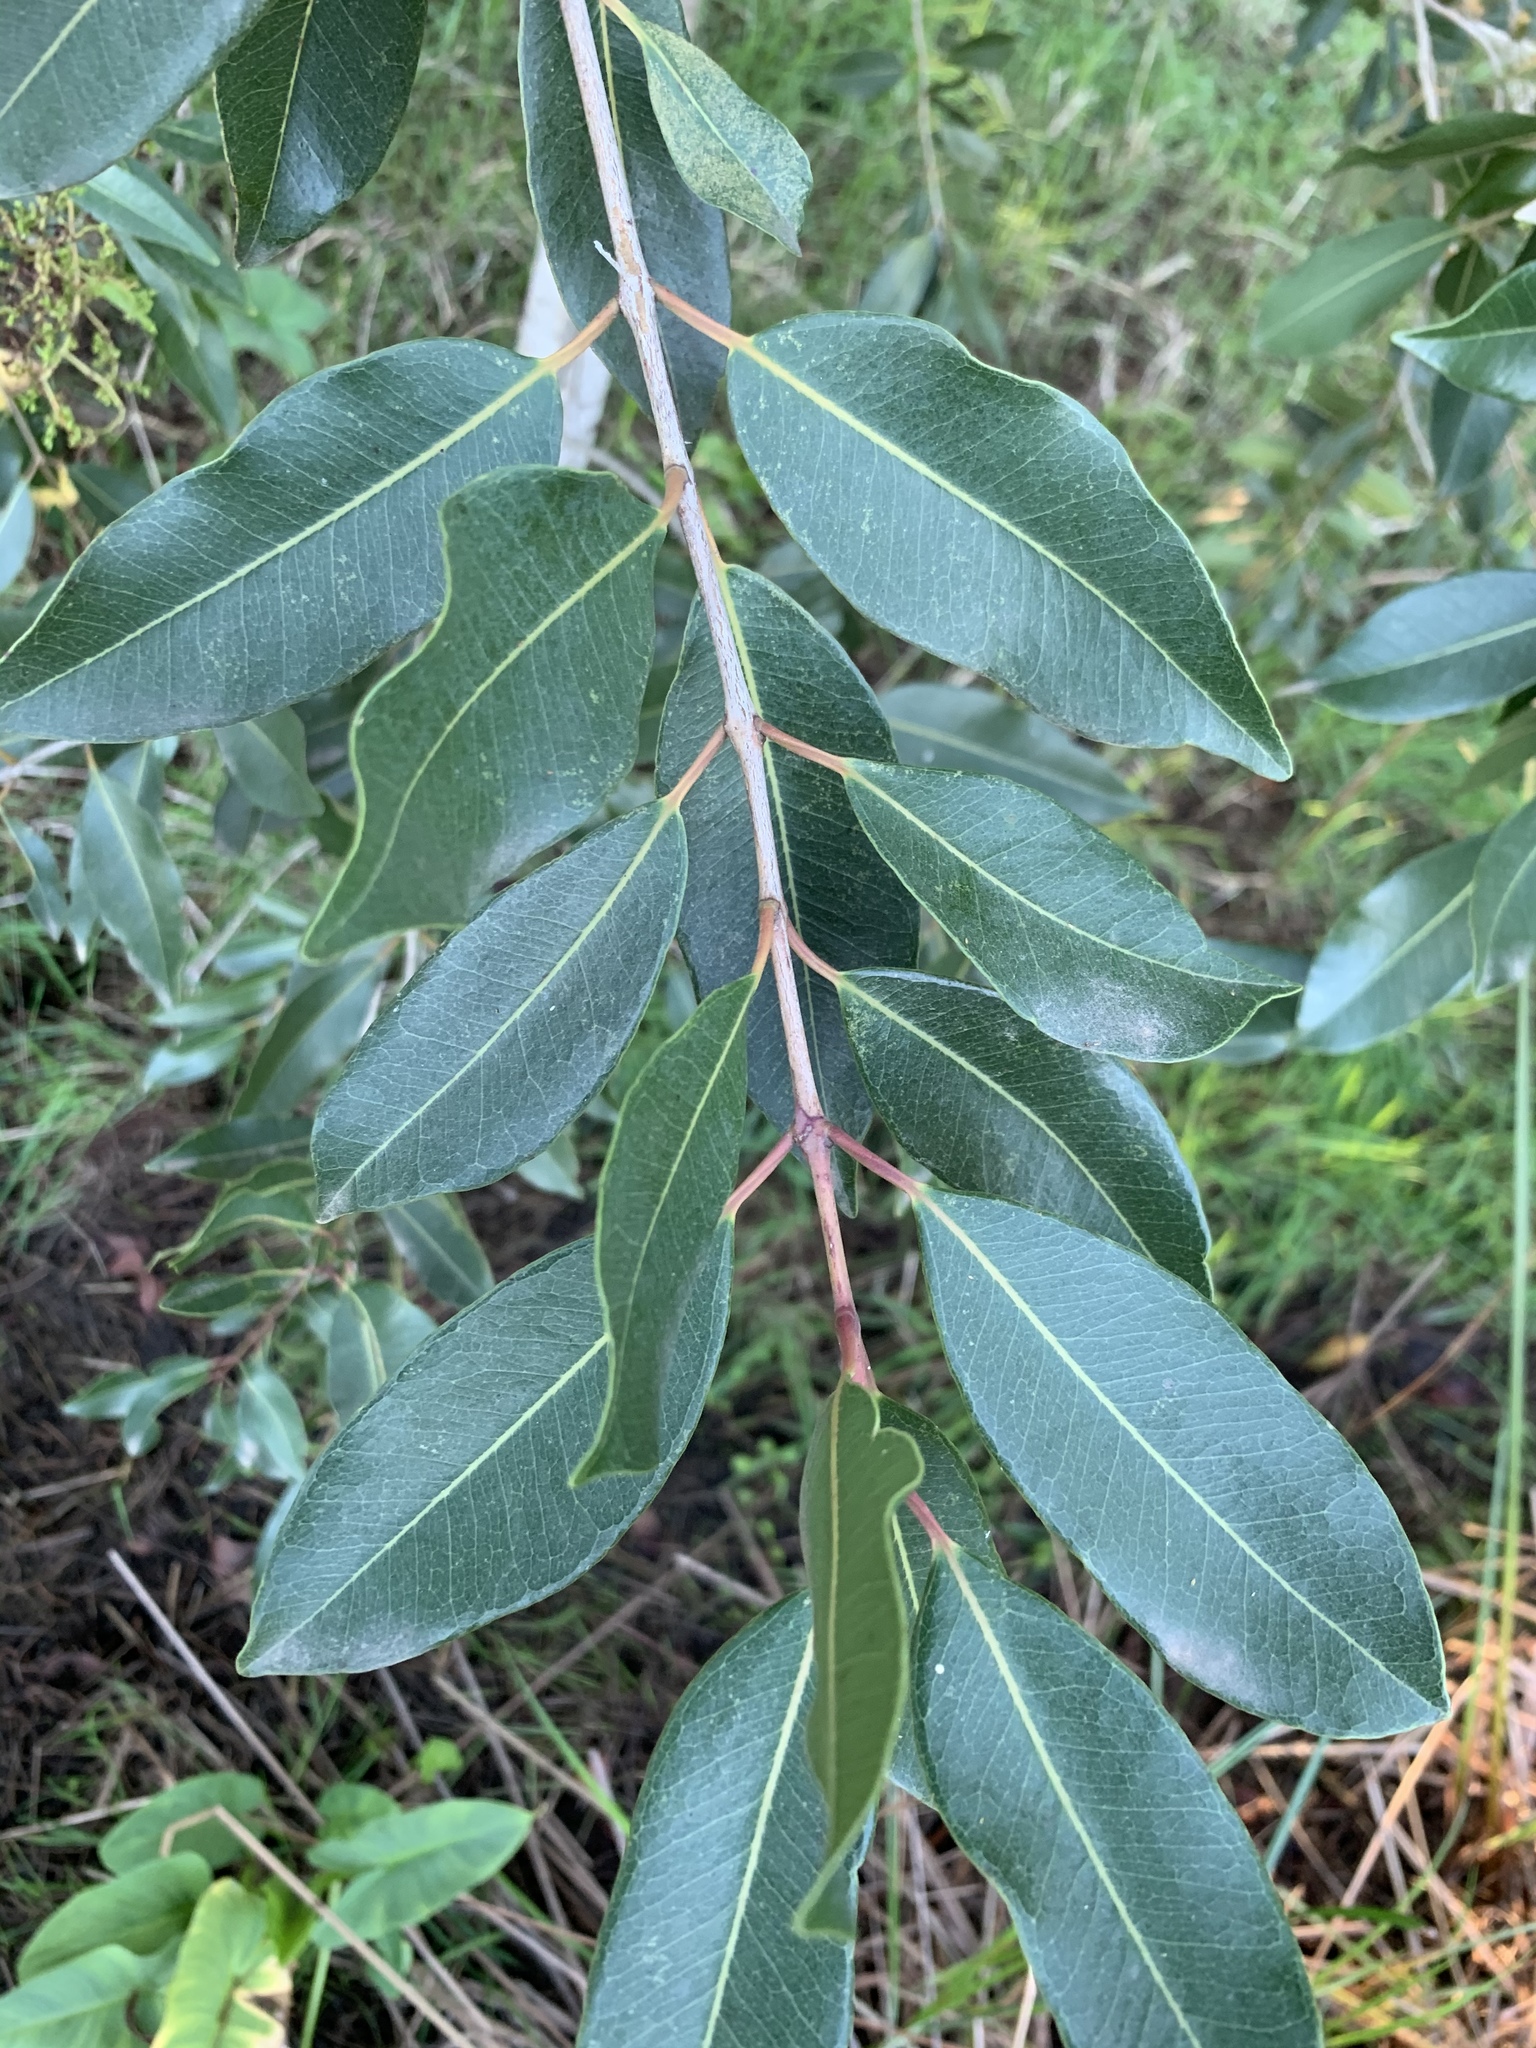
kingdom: Plantae
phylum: Tracheophyta
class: Magnoliopsida
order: Myrtales
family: Myrtaceae
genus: Syzygium
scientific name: Syzygium guineense
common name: Water-pear
